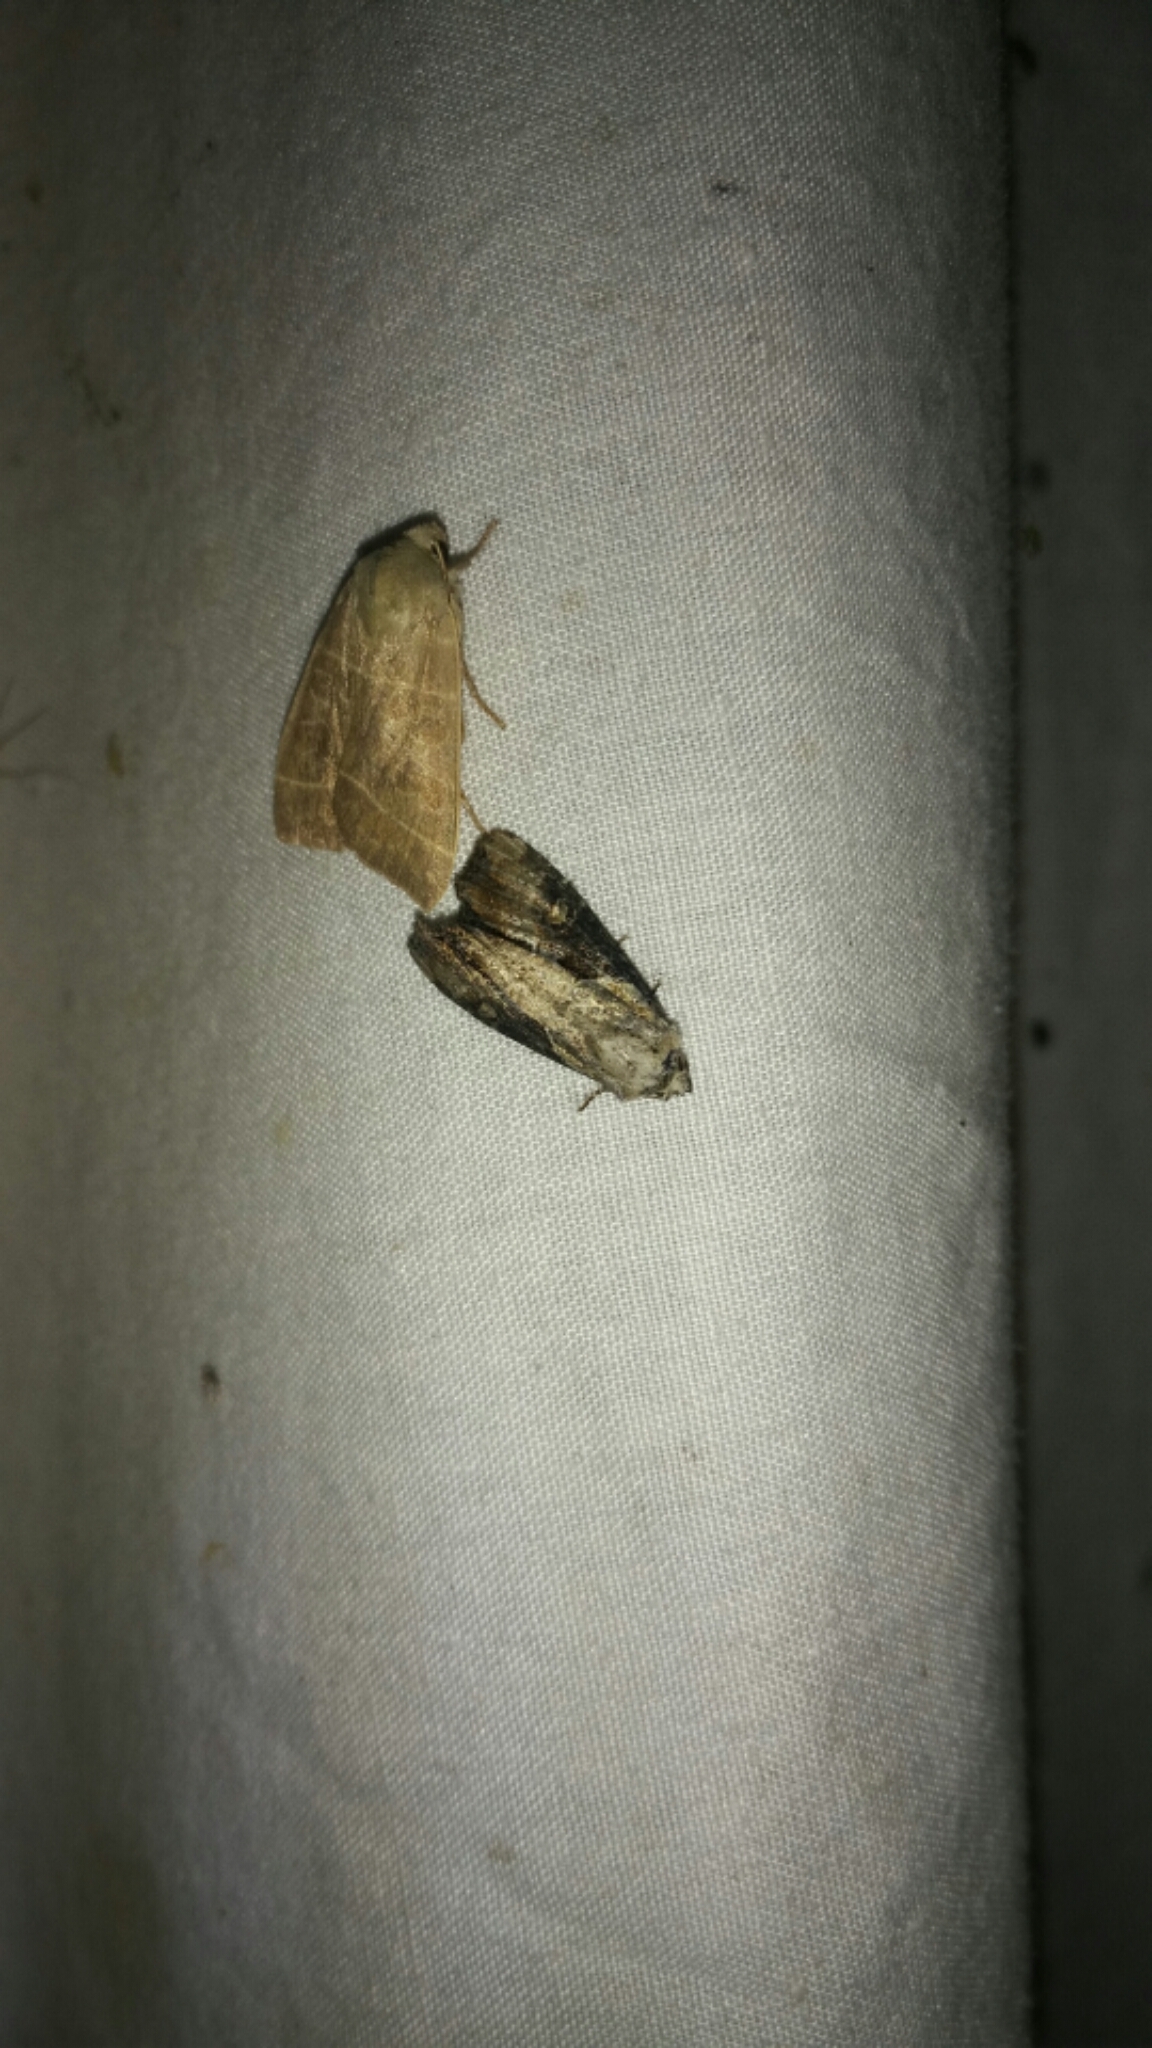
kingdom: Animalia
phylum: Arthropoda
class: Insecta
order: Lepidoptera
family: Noctuidae
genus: Lateroligia
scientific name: Lateroligia ophiogramma
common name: Double lobed
